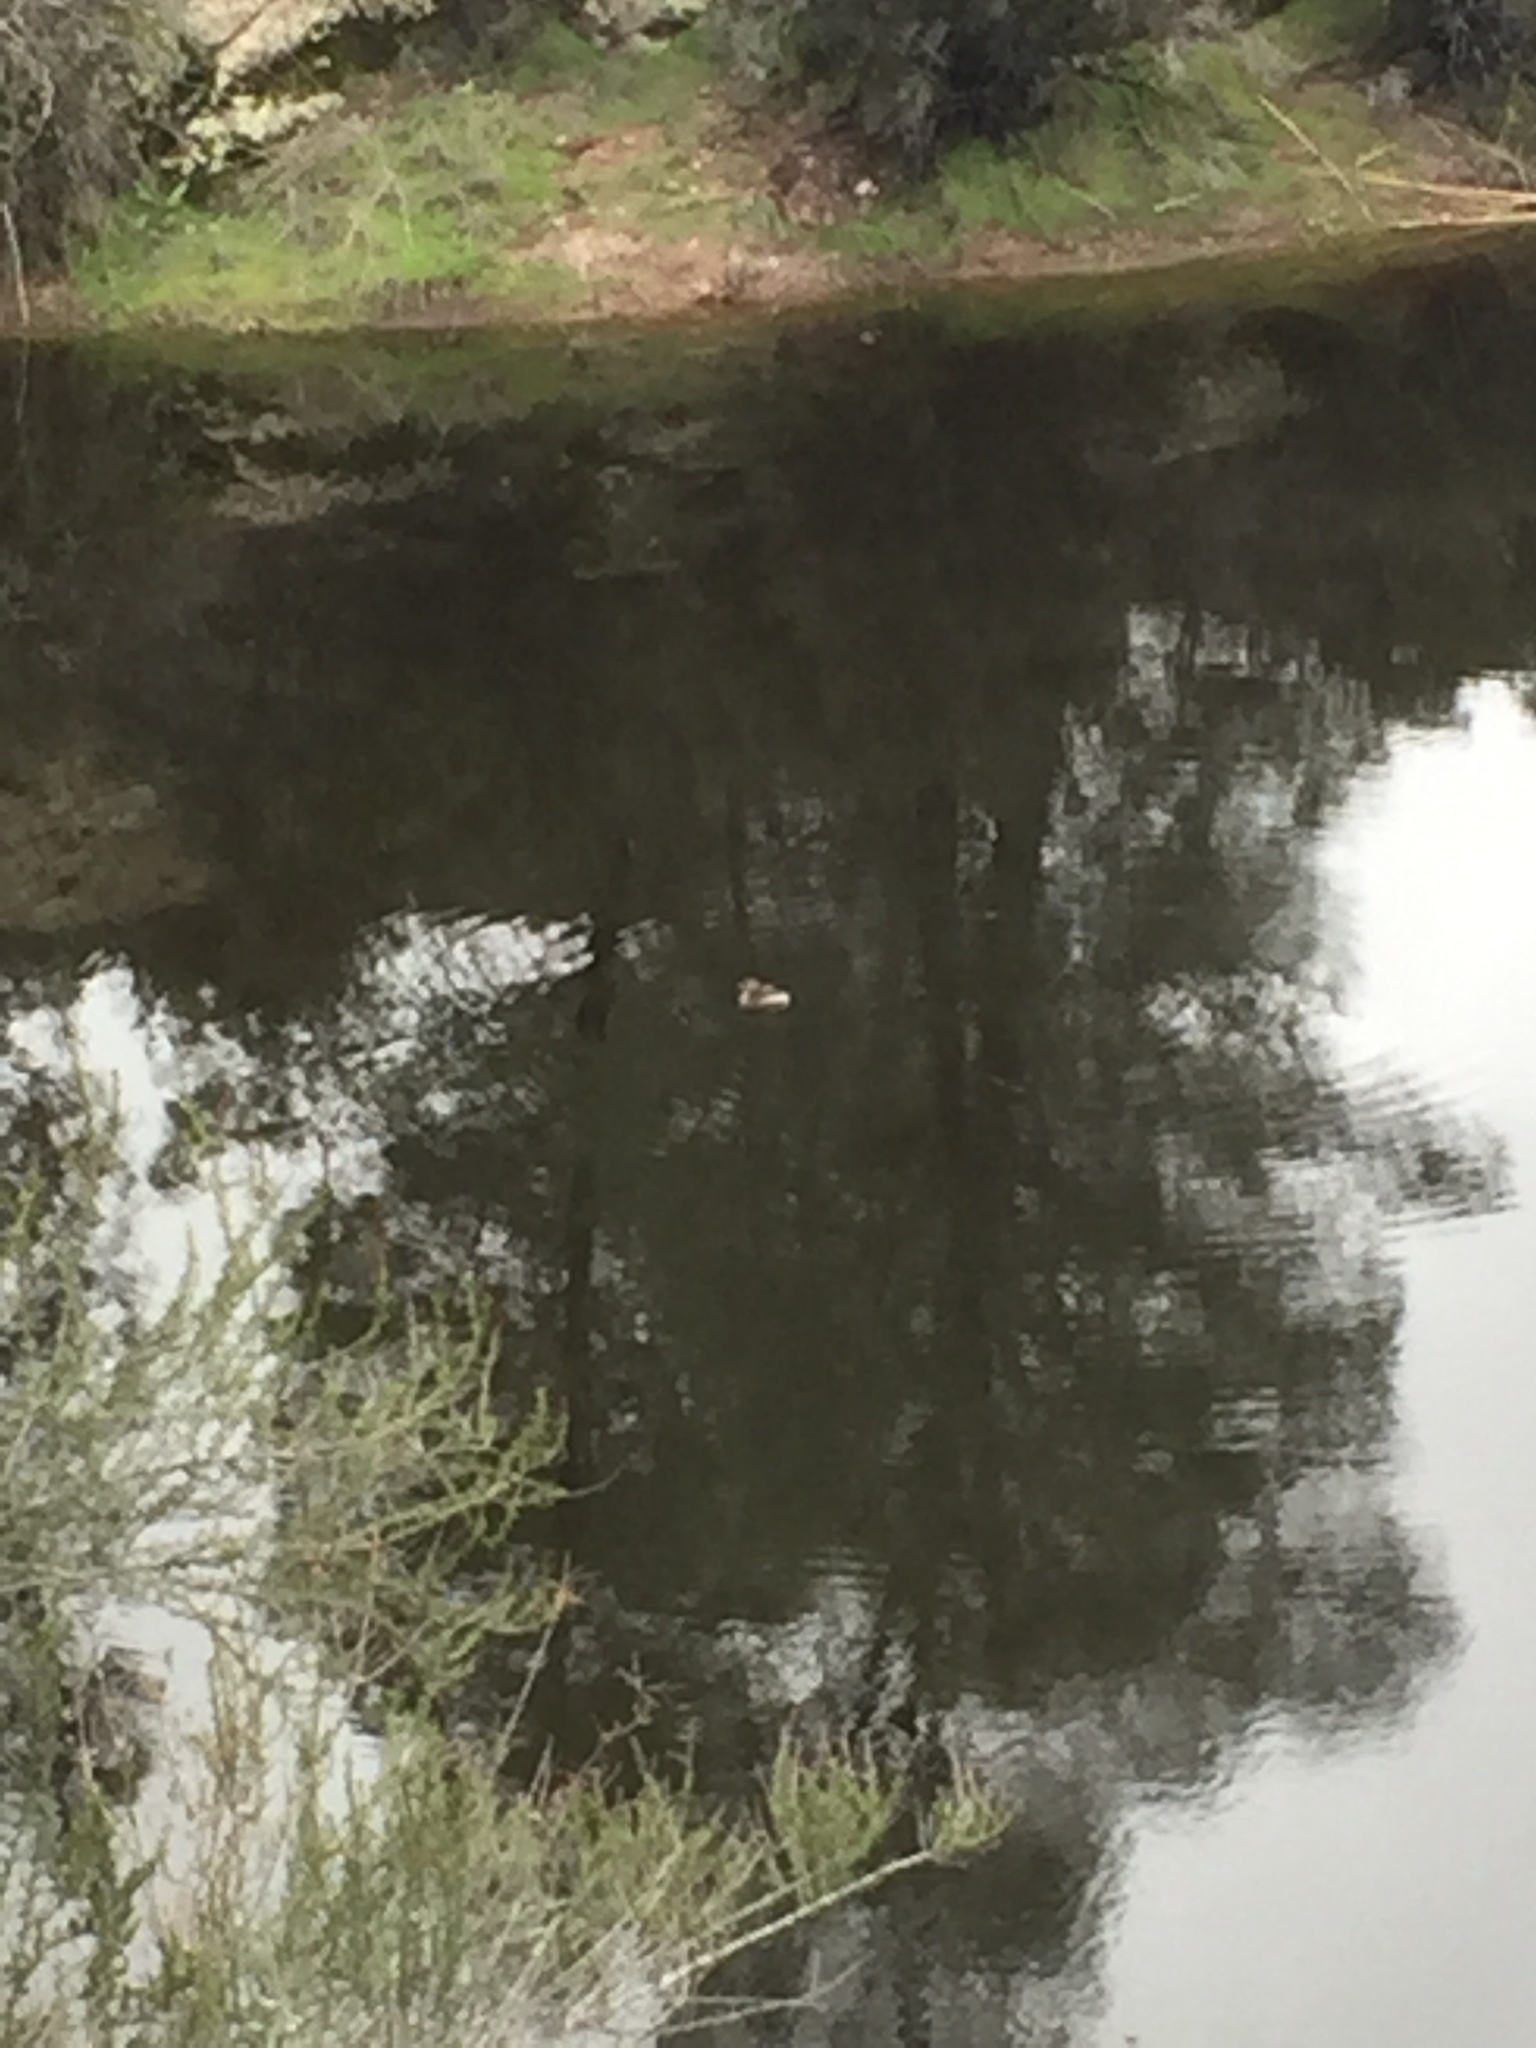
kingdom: Animalia
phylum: Chordata
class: Aves
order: Podicipediformes
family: Podicipedidae
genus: Podilymbus
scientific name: Podilymbus podiceps
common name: Pied-billed grebe
